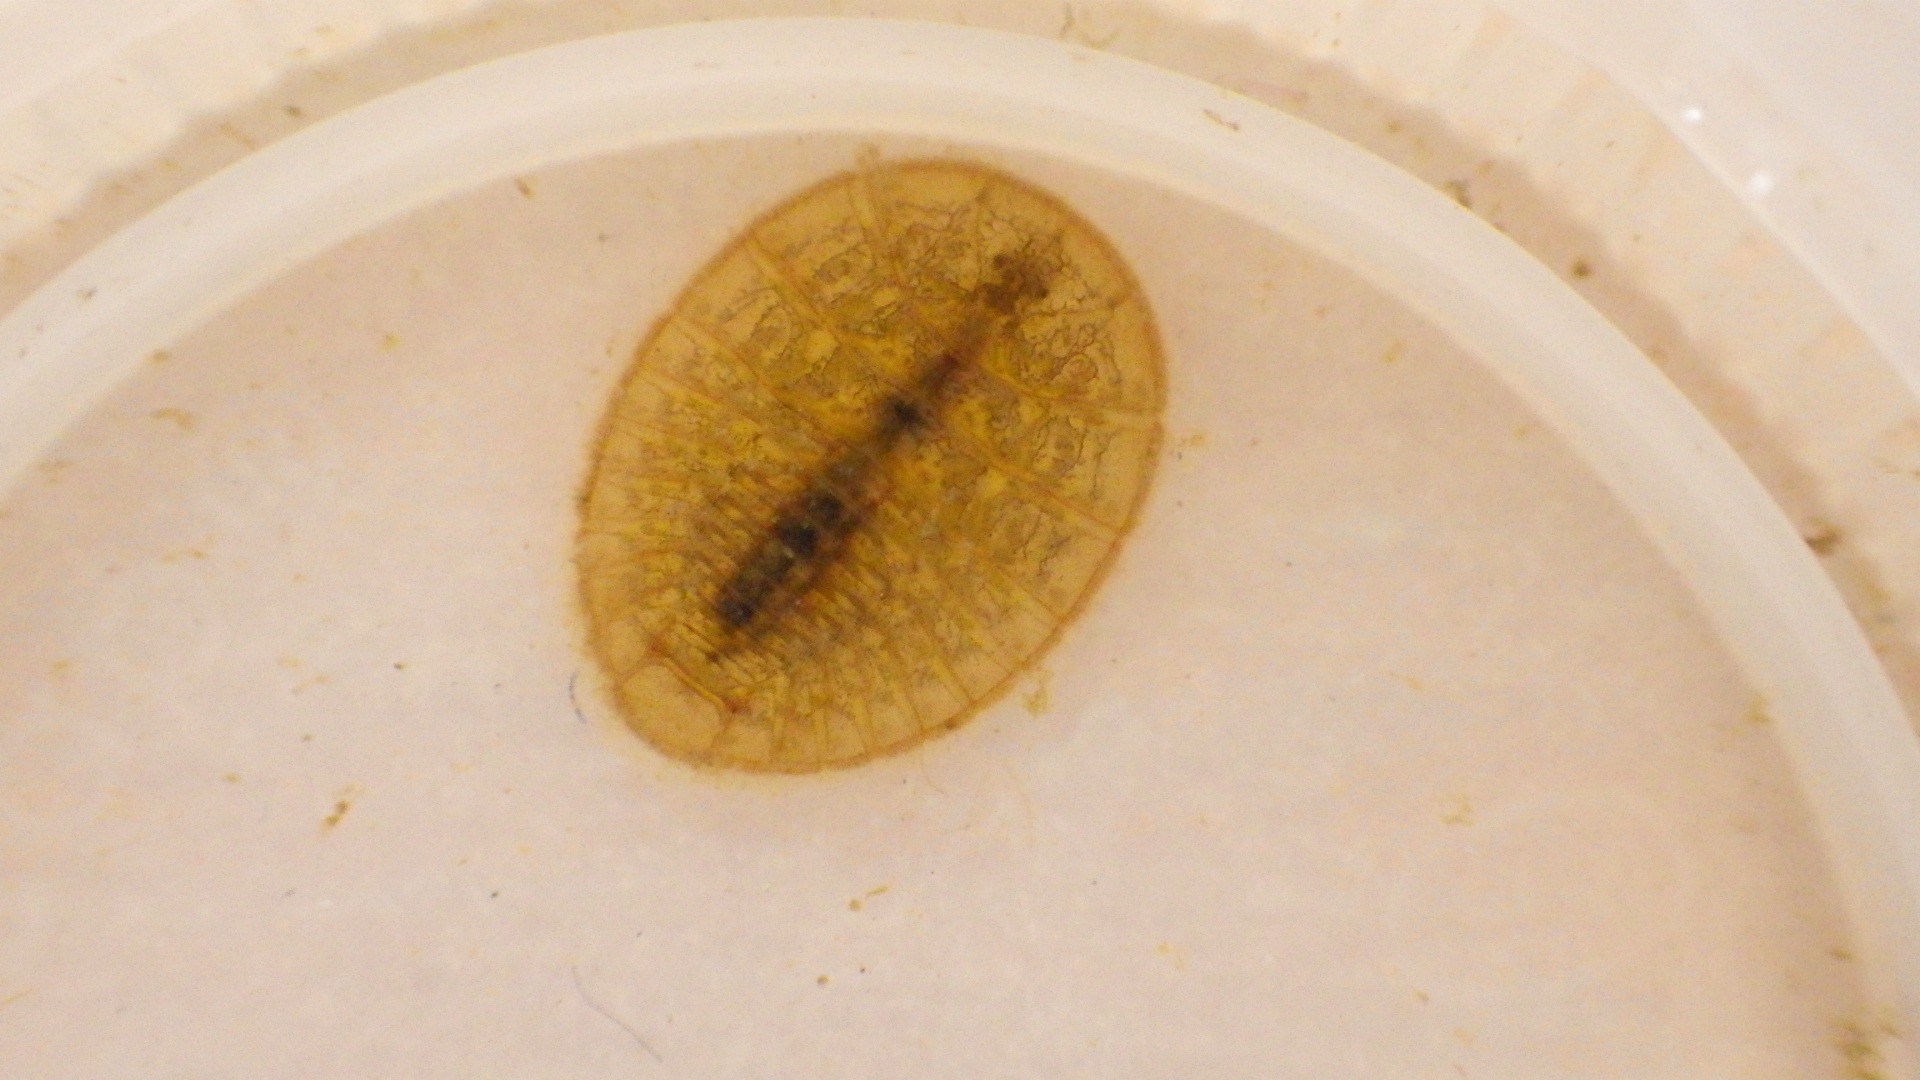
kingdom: Animalia
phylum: Arthropoda
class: Insecta
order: Coleoptera
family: Psephenidae
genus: Psephenus
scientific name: Psephenus herricki
